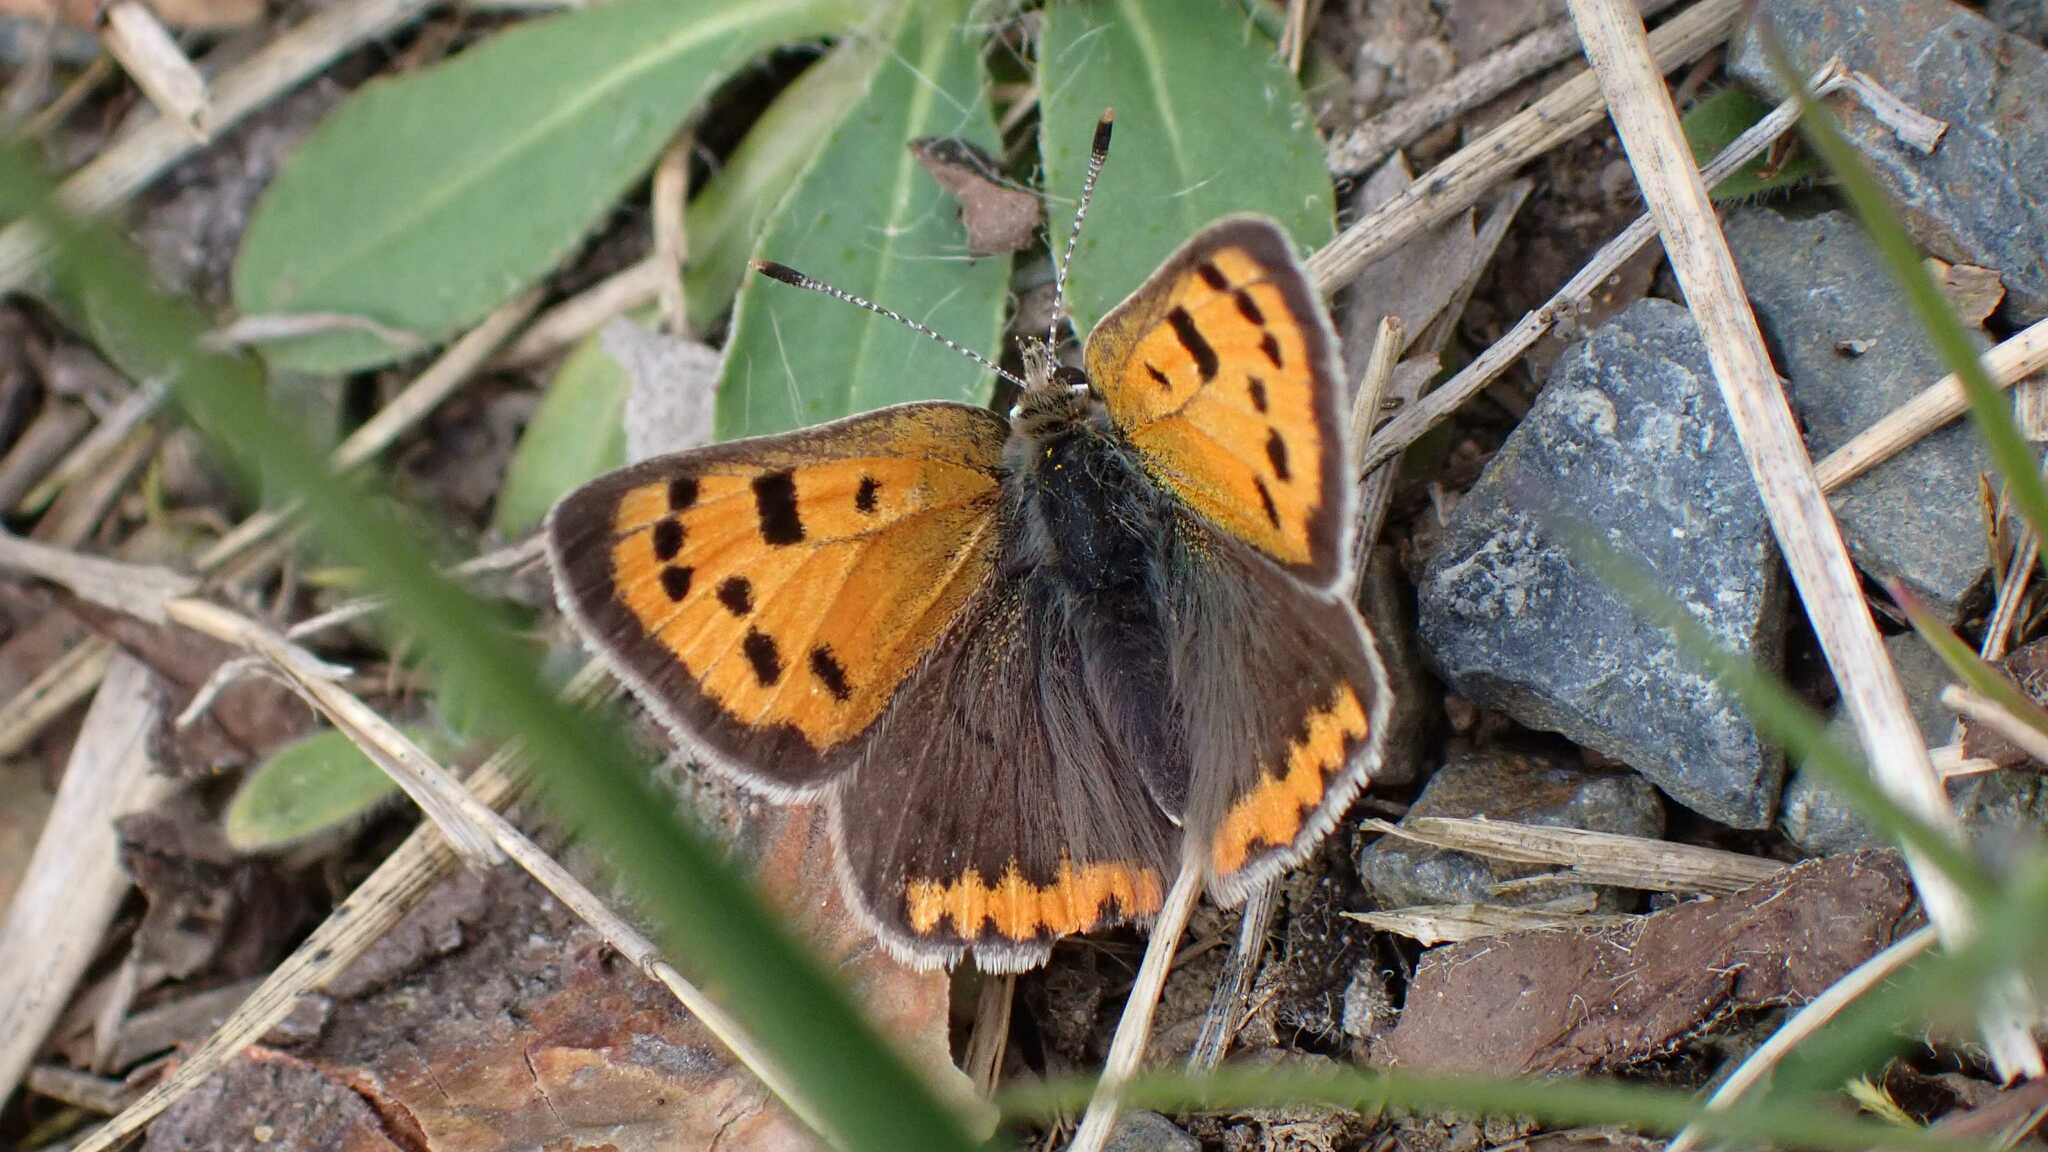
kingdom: Animalia
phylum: Arthropoda
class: Insecta
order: Lepidoptera
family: Lycaenidae
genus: Lycaena
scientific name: Lycaena phlaeas
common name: Small copper
